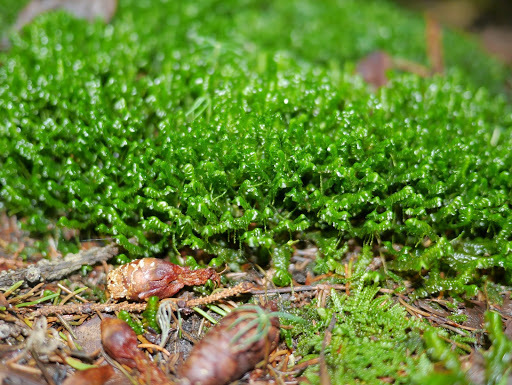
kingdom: Plantae
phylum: Marchantiophyta
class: Jungermanniopsida
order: Jungermanniales
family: Lepidoziaceae
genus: Bazzania
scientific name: Bazzania trilobata
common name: Three-lobed whipwort
